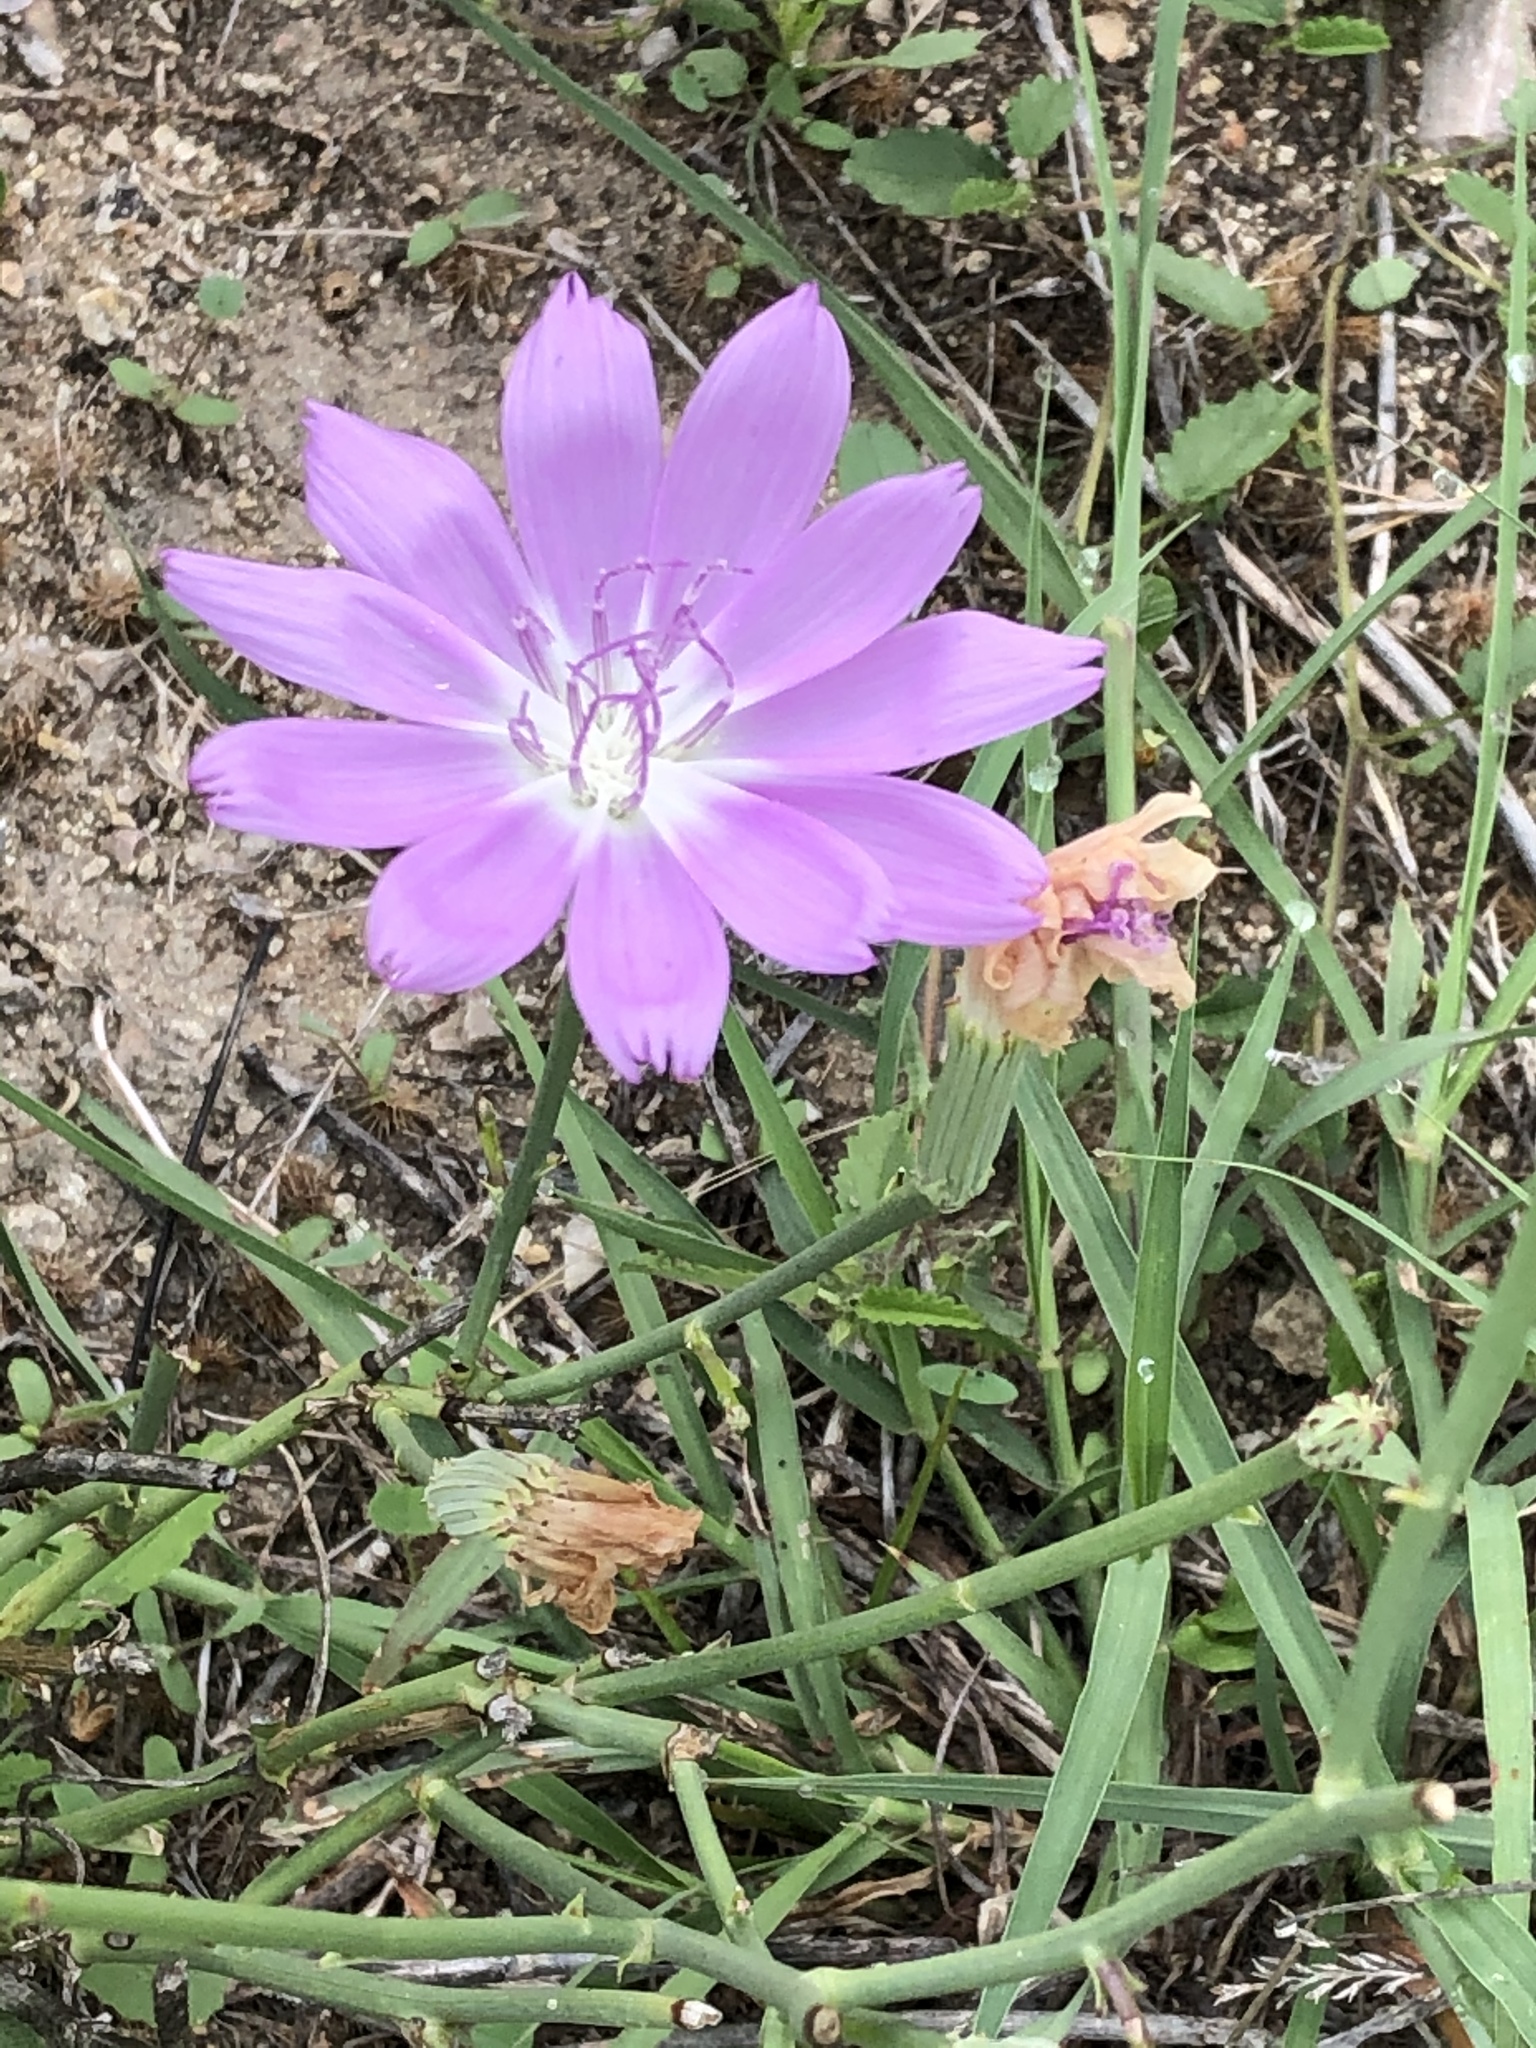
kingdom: Plantae
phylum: Tracheophyta
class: Magnoliopsida
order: Asterales
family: Asteraceae
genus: Lygodesmia
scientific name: Lygodesmia texana
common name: Texas skeleton-plant
